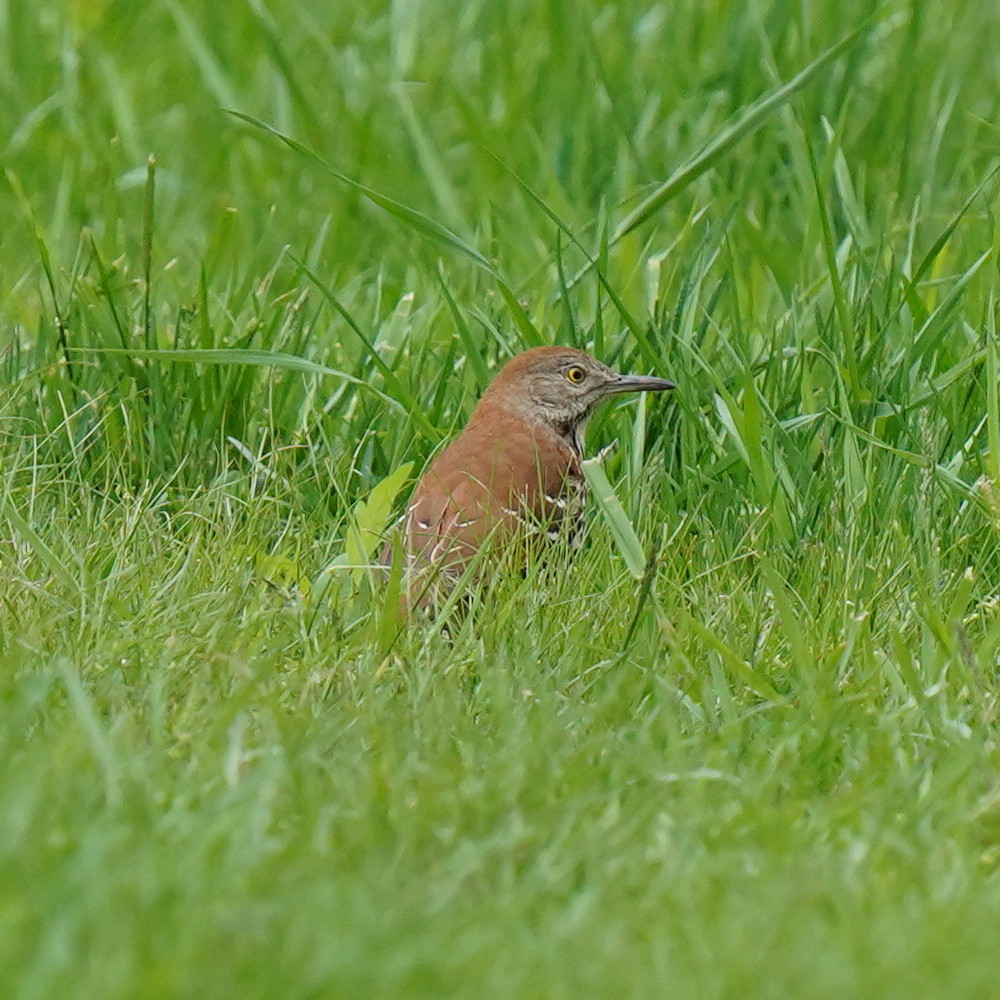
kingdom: Animalia
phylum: Chordata
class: Aves
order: Passeriformes
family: Mimidae
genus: Toxostoma
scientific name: Toxostoma rufum
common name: Brown thrasher
